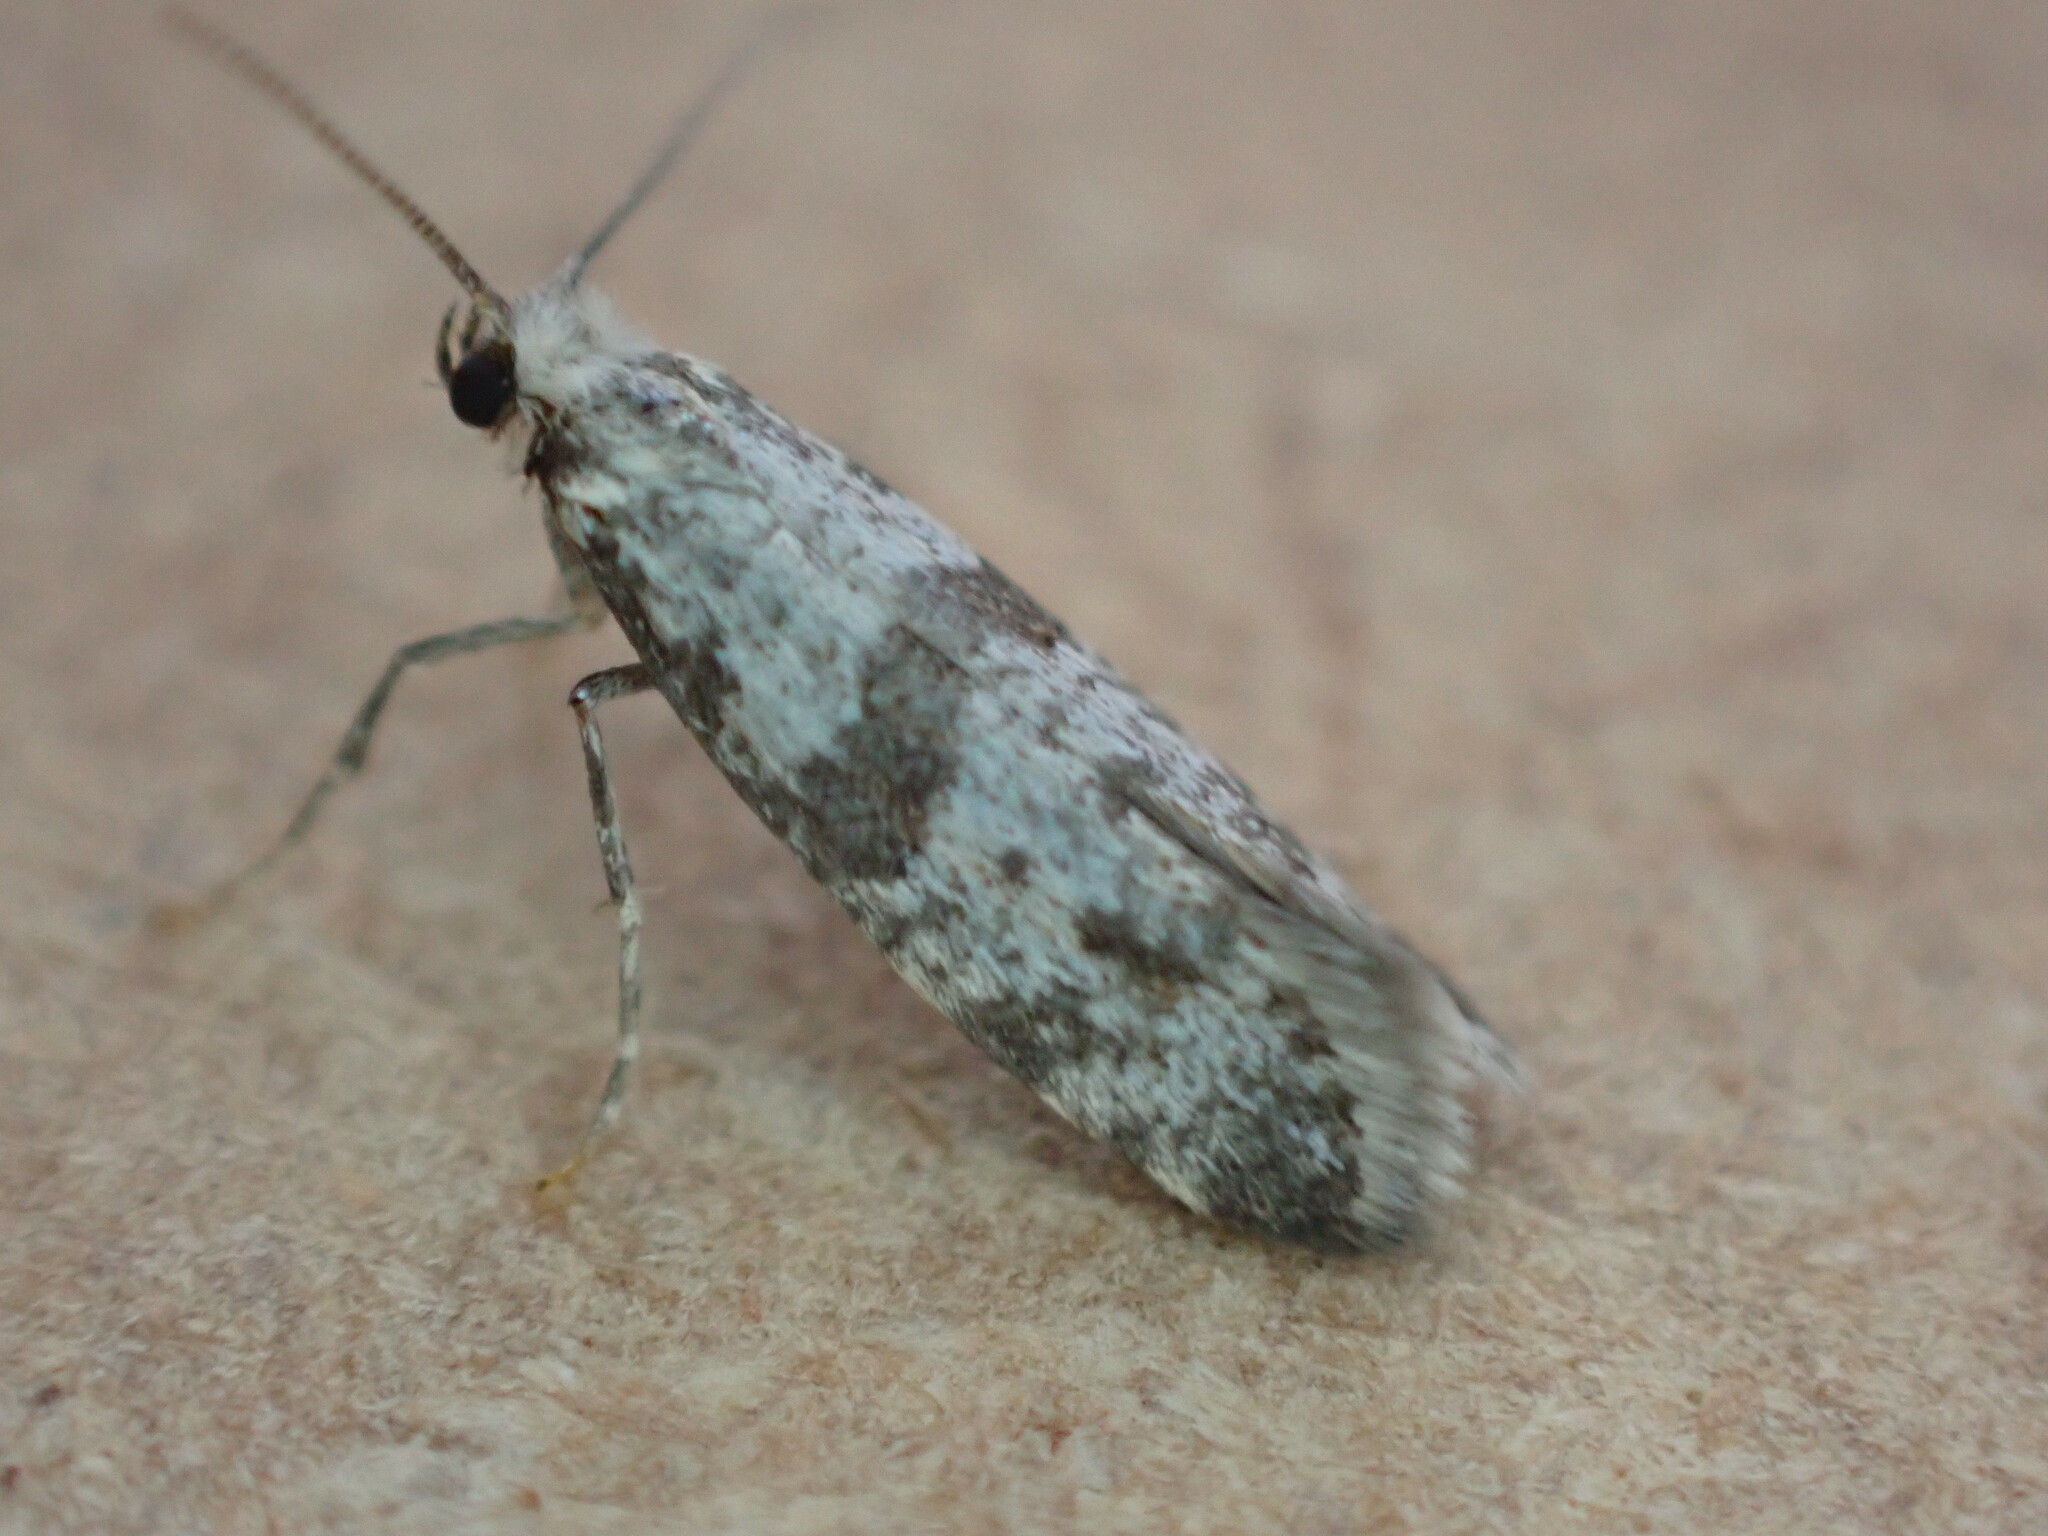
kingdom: Animalia
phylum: Arthropoda
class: Insecta
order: Lepidoptera
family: Yponomeutidae
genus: Scythropia
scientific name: Scythropia crataegella
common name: Hawthorn moth
